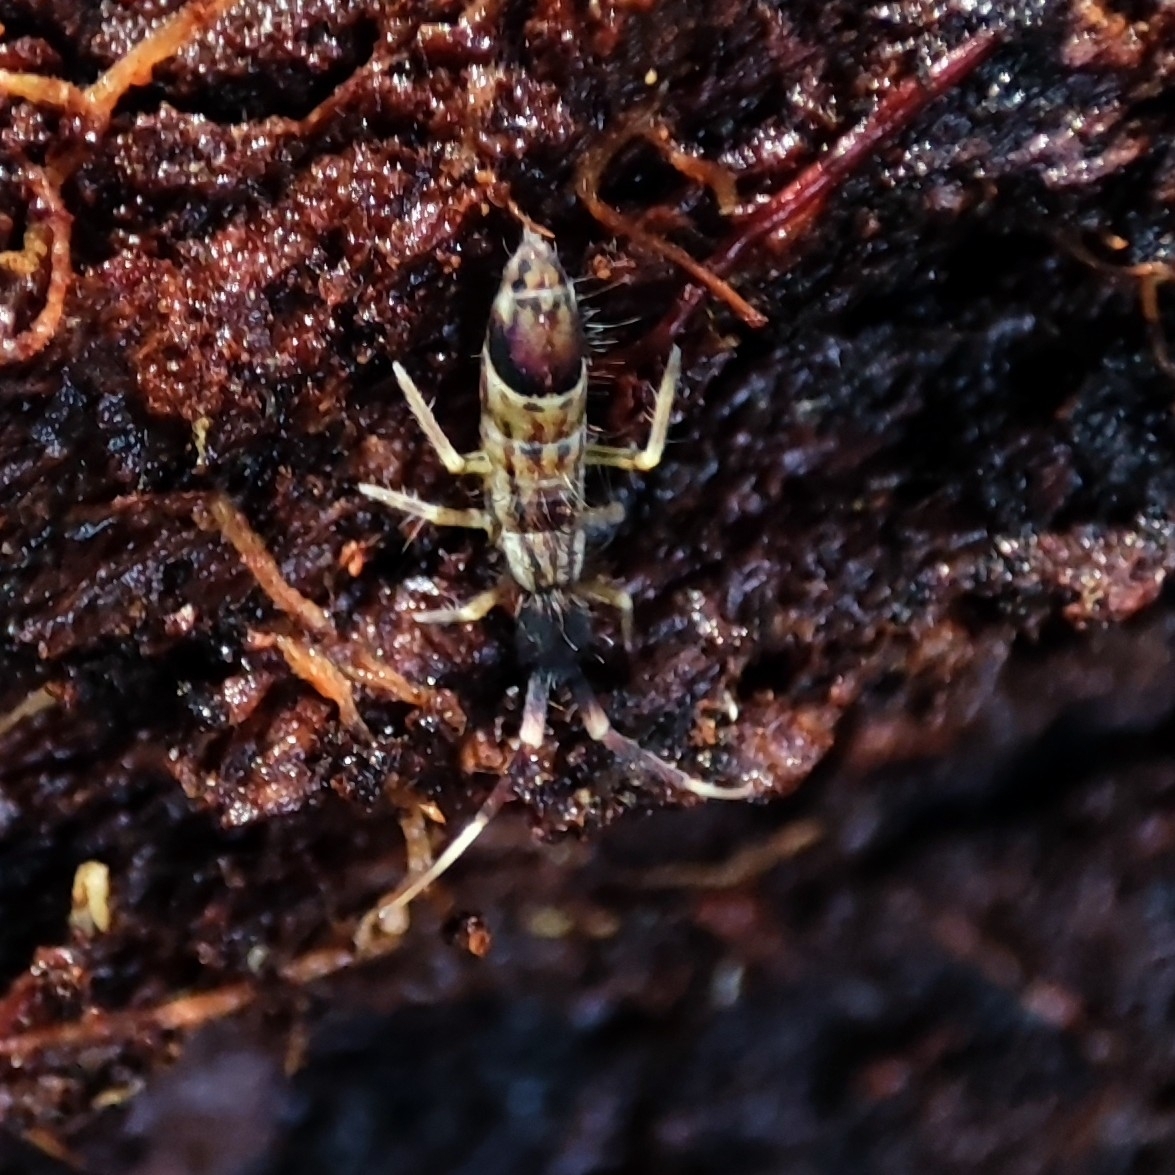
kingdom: Animalia
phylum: Arthropoda
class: Collembola
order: Entomobryomorpha
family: Entomobryidae
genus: Entomobrya
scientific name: Entomobrya nivalis
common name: Cosmopolitan springtail
